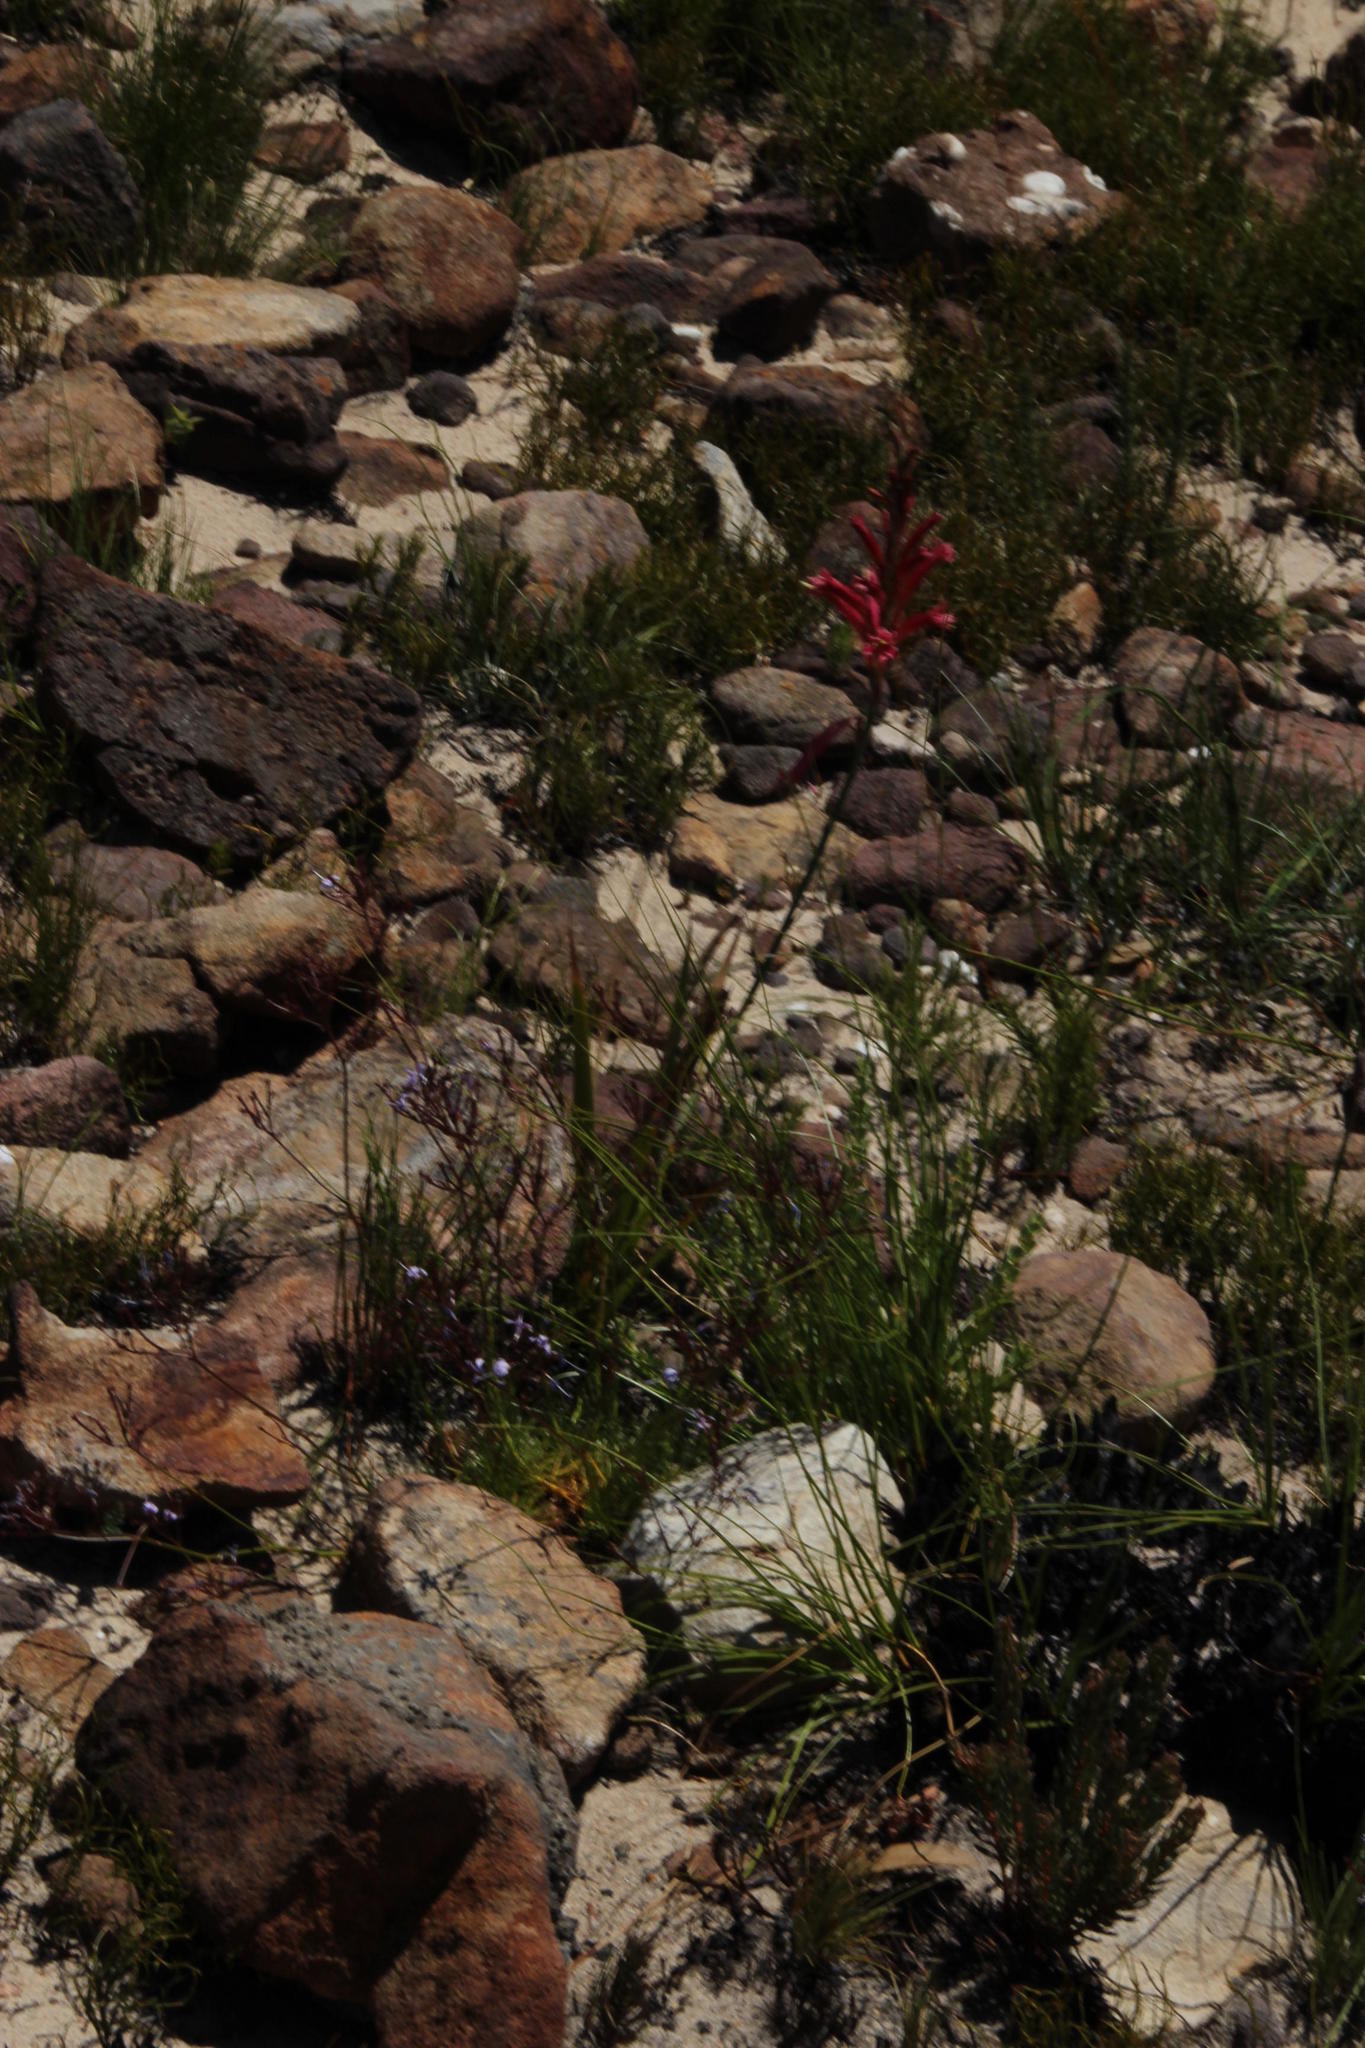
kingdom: Plantae
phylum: Tracheophyta
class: Liliopsida
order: Asparagales
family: Iridaceae
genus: Tritoniopsis
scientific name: Tritoniopsis antholyza
